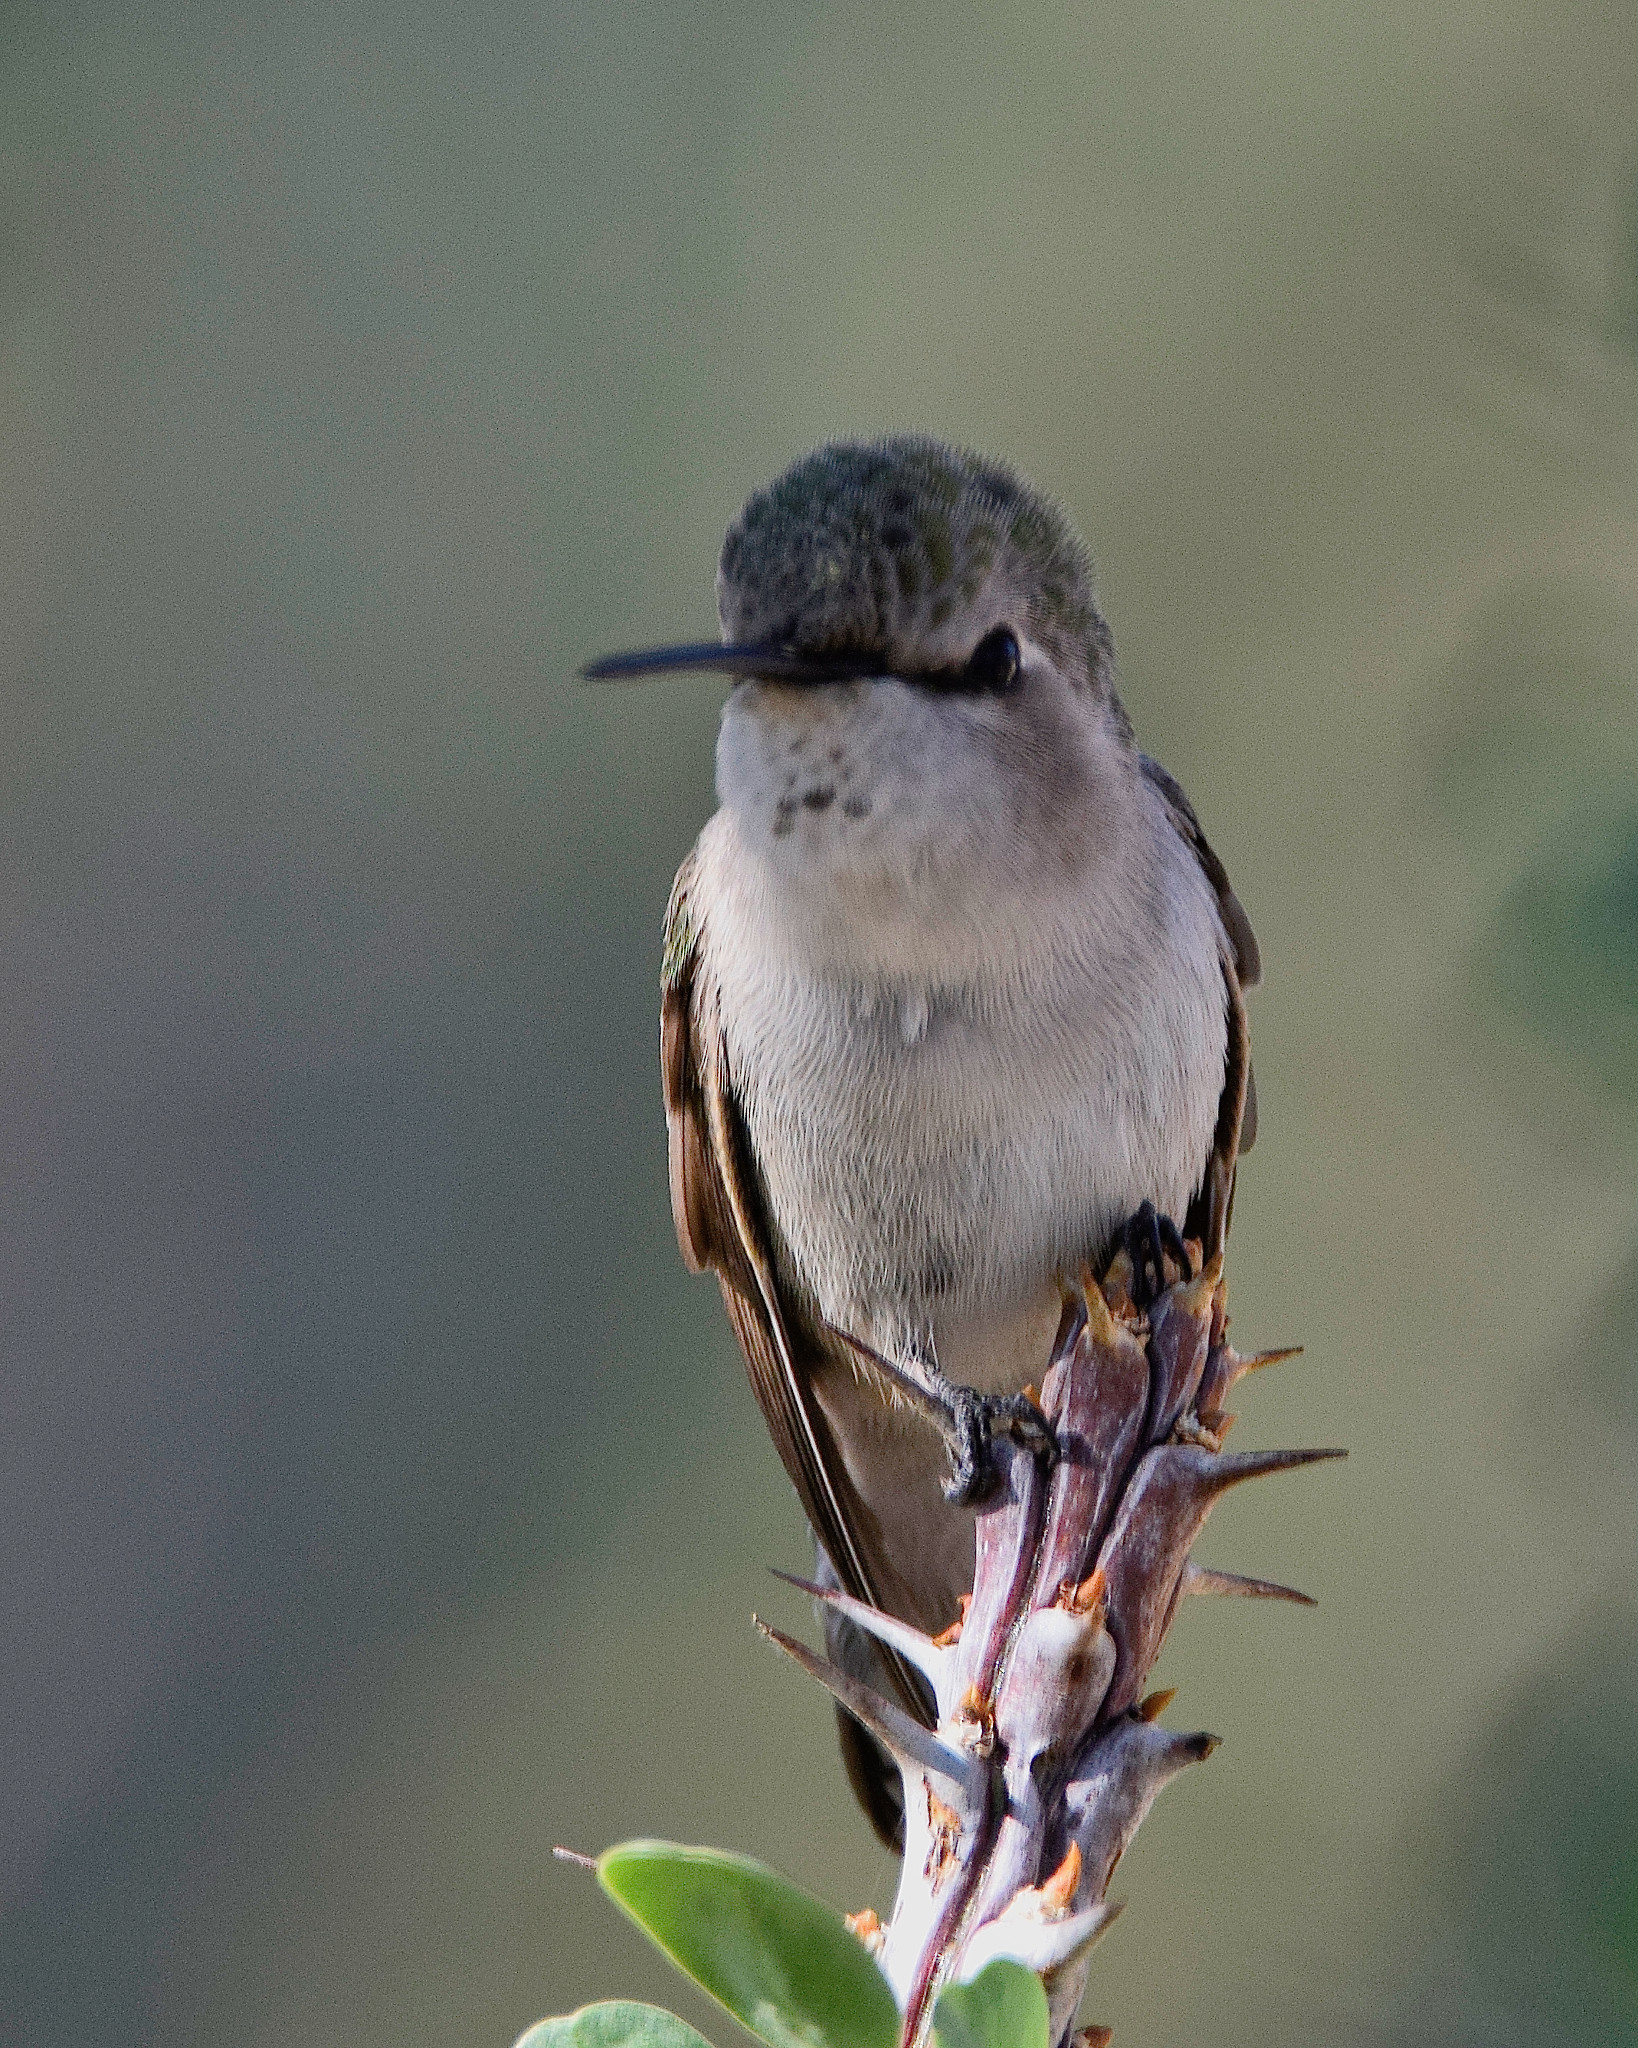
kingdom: Animalia
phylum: Chordata
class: Aves
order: Apodiformes
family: Trochilidae
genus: Calypte
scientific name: Calypte anna
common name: Anna's hummingbird
